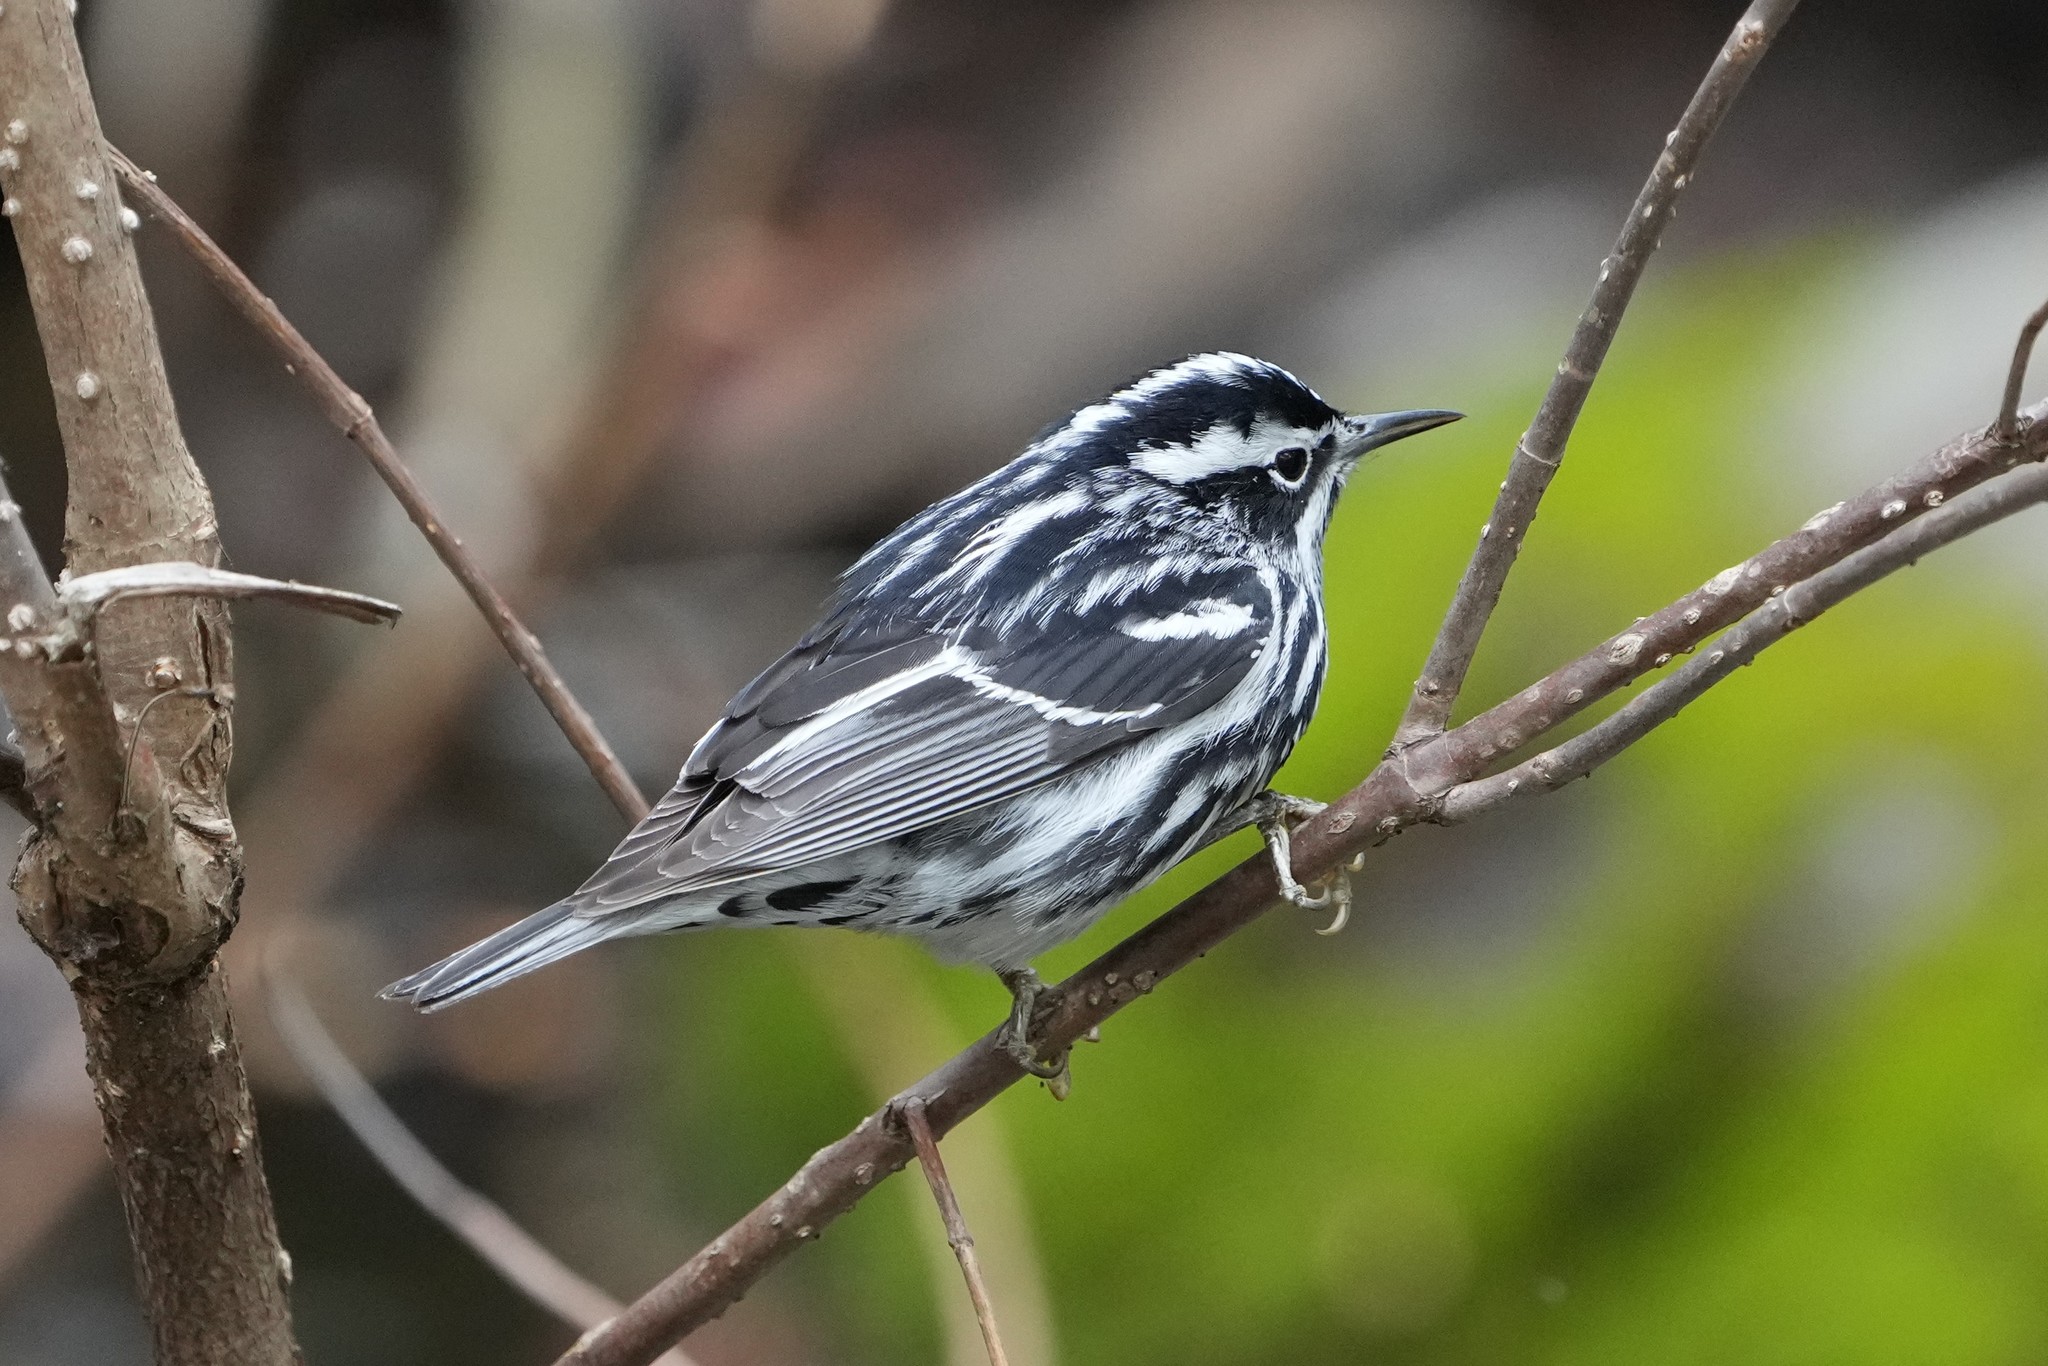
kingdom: Animalia
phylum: Chordata
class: Aves
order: Passeriformes
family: Parulidae
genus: Mniotilta
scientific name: Mniotilta varia
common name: Black-and-white warbler
